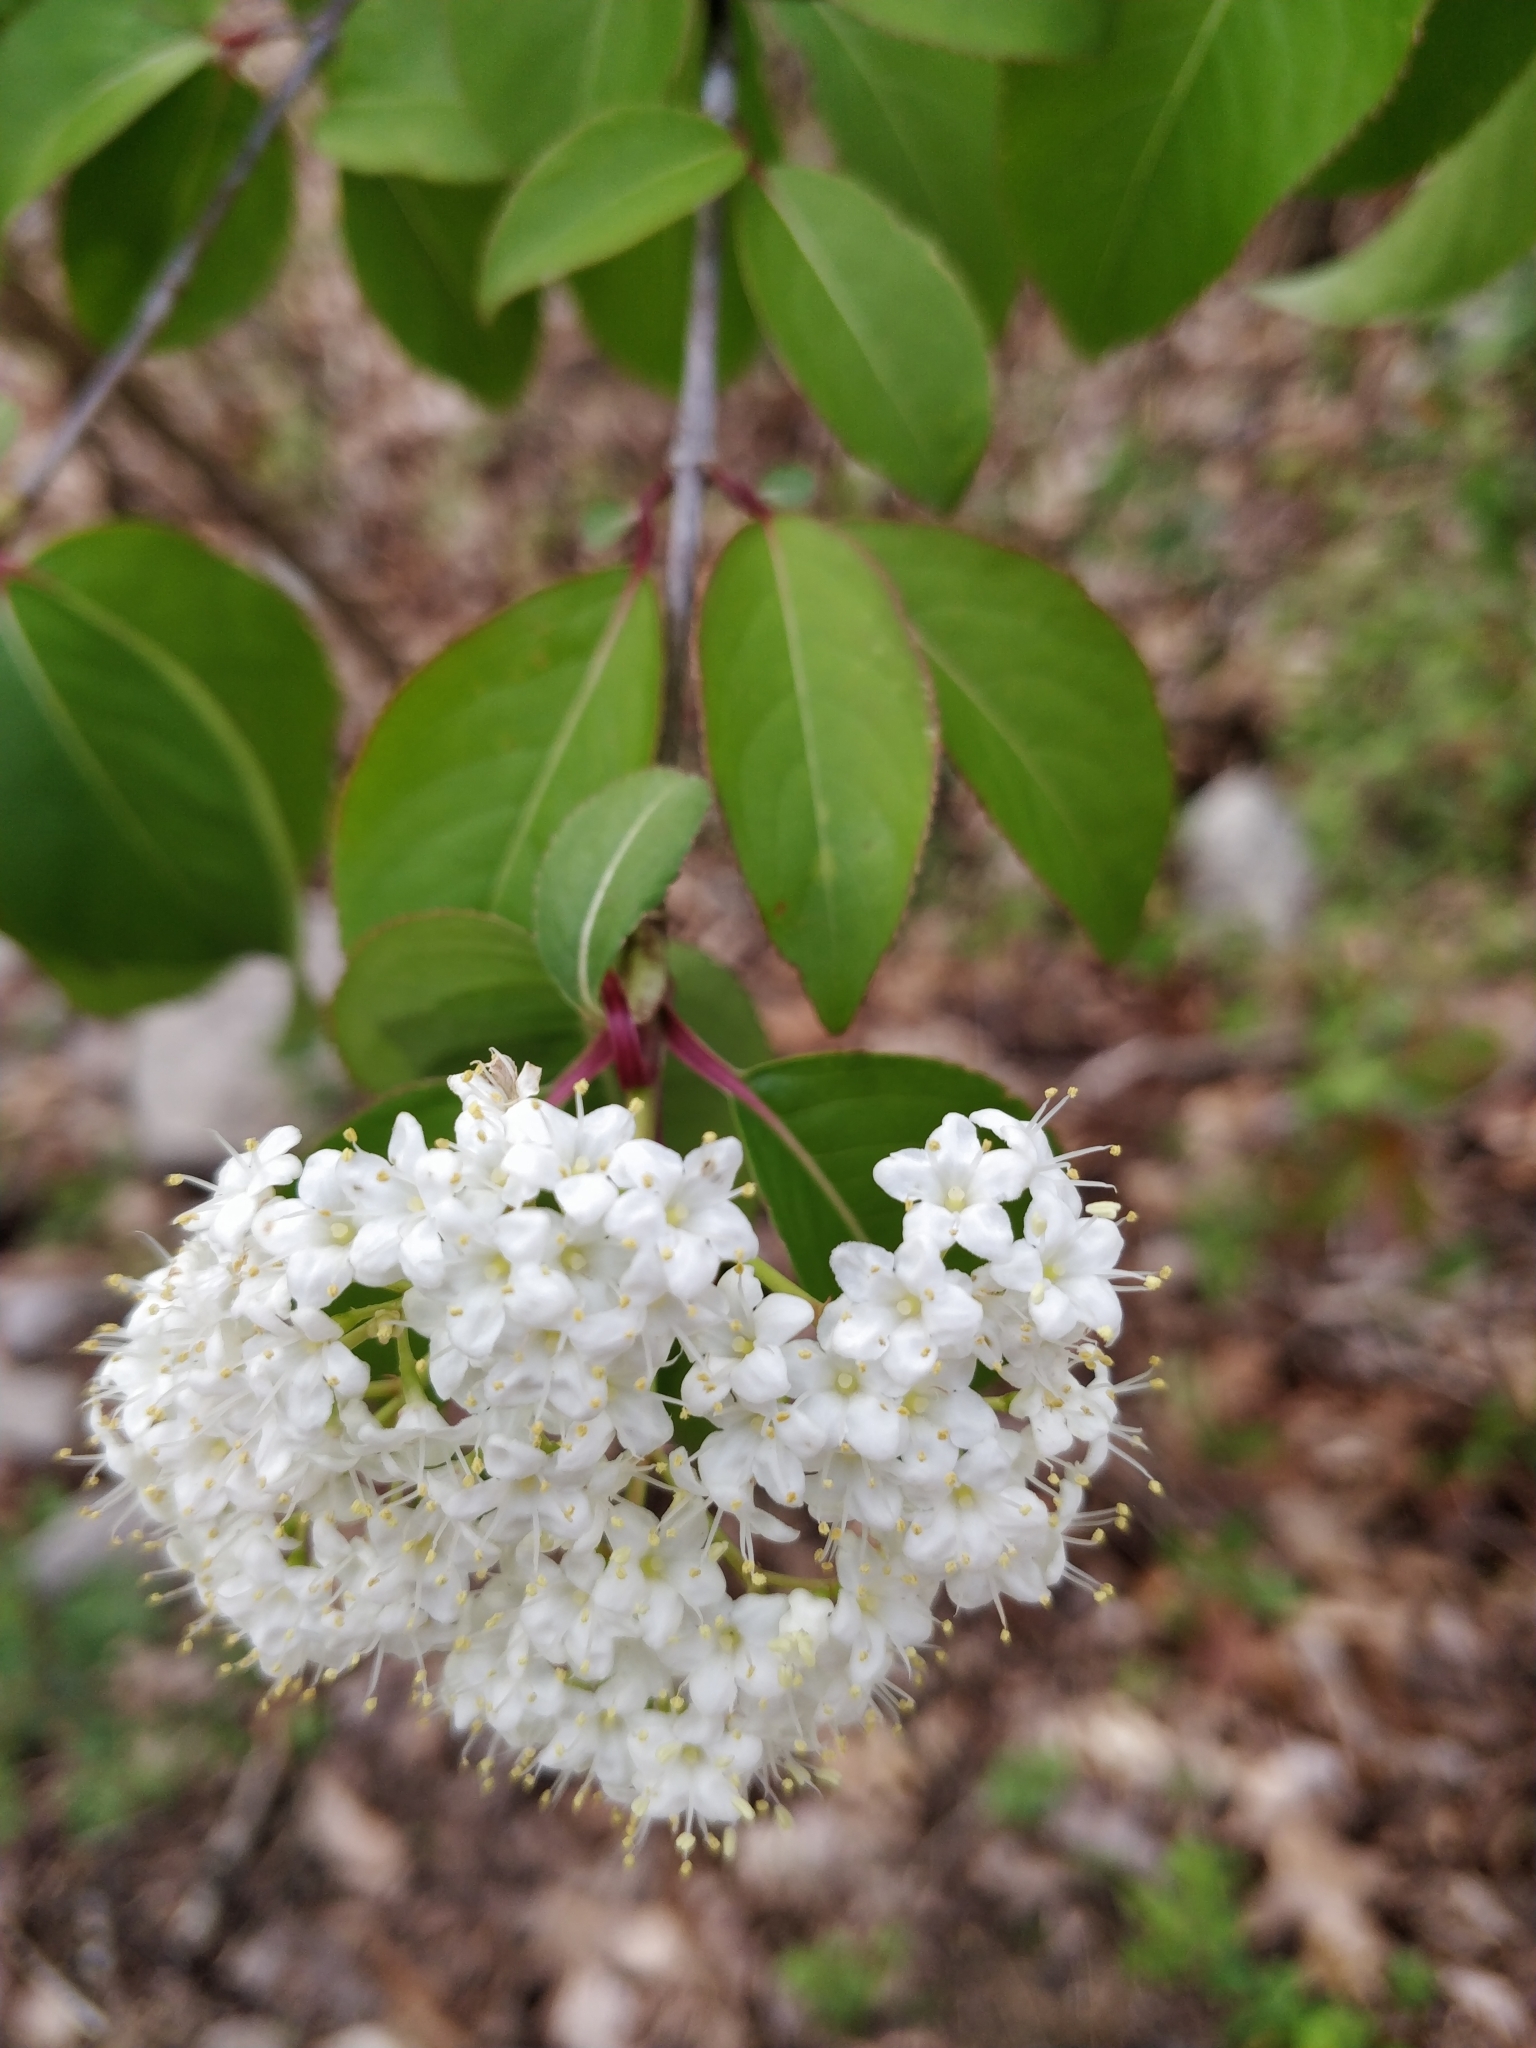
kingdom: Plantae
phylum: Tracheophyta
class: Magnoliopsida
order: Dipsacales
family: Viburnaceae
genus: Viburnum
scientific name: Viburnum prunifolium
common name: Black haw
